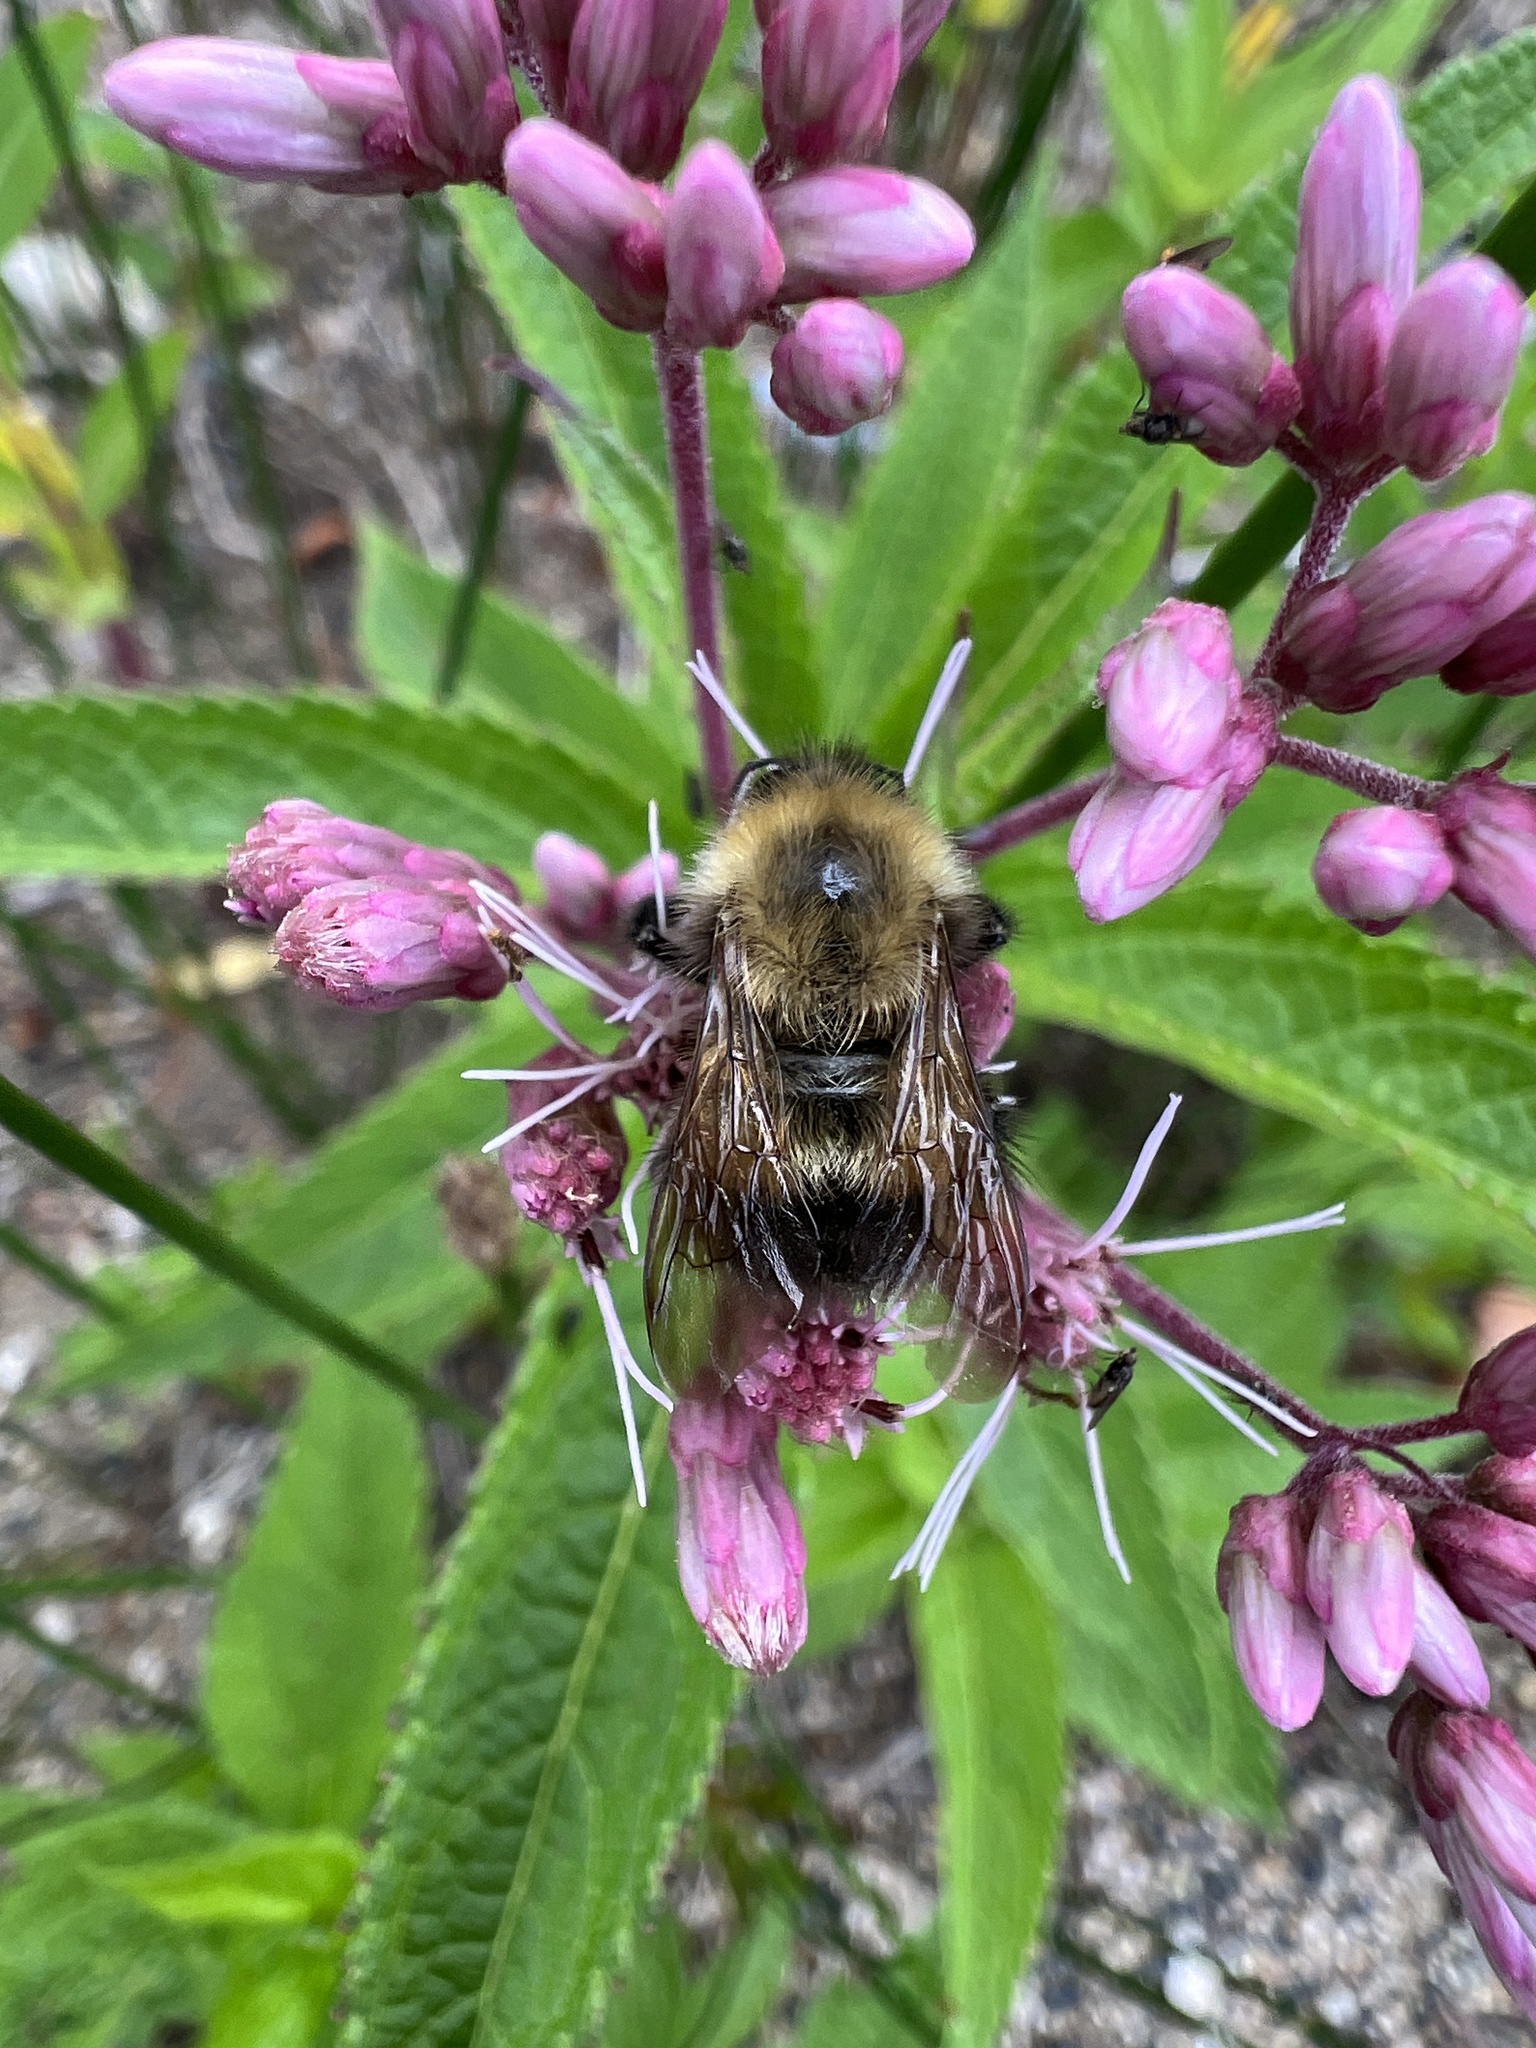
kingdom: Animalia
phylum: Arthropoda
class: Insecta
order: Hymenoptera
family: Apidae
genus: Bombus
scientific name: Bombus perplexus
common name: Confusing bumble bee
